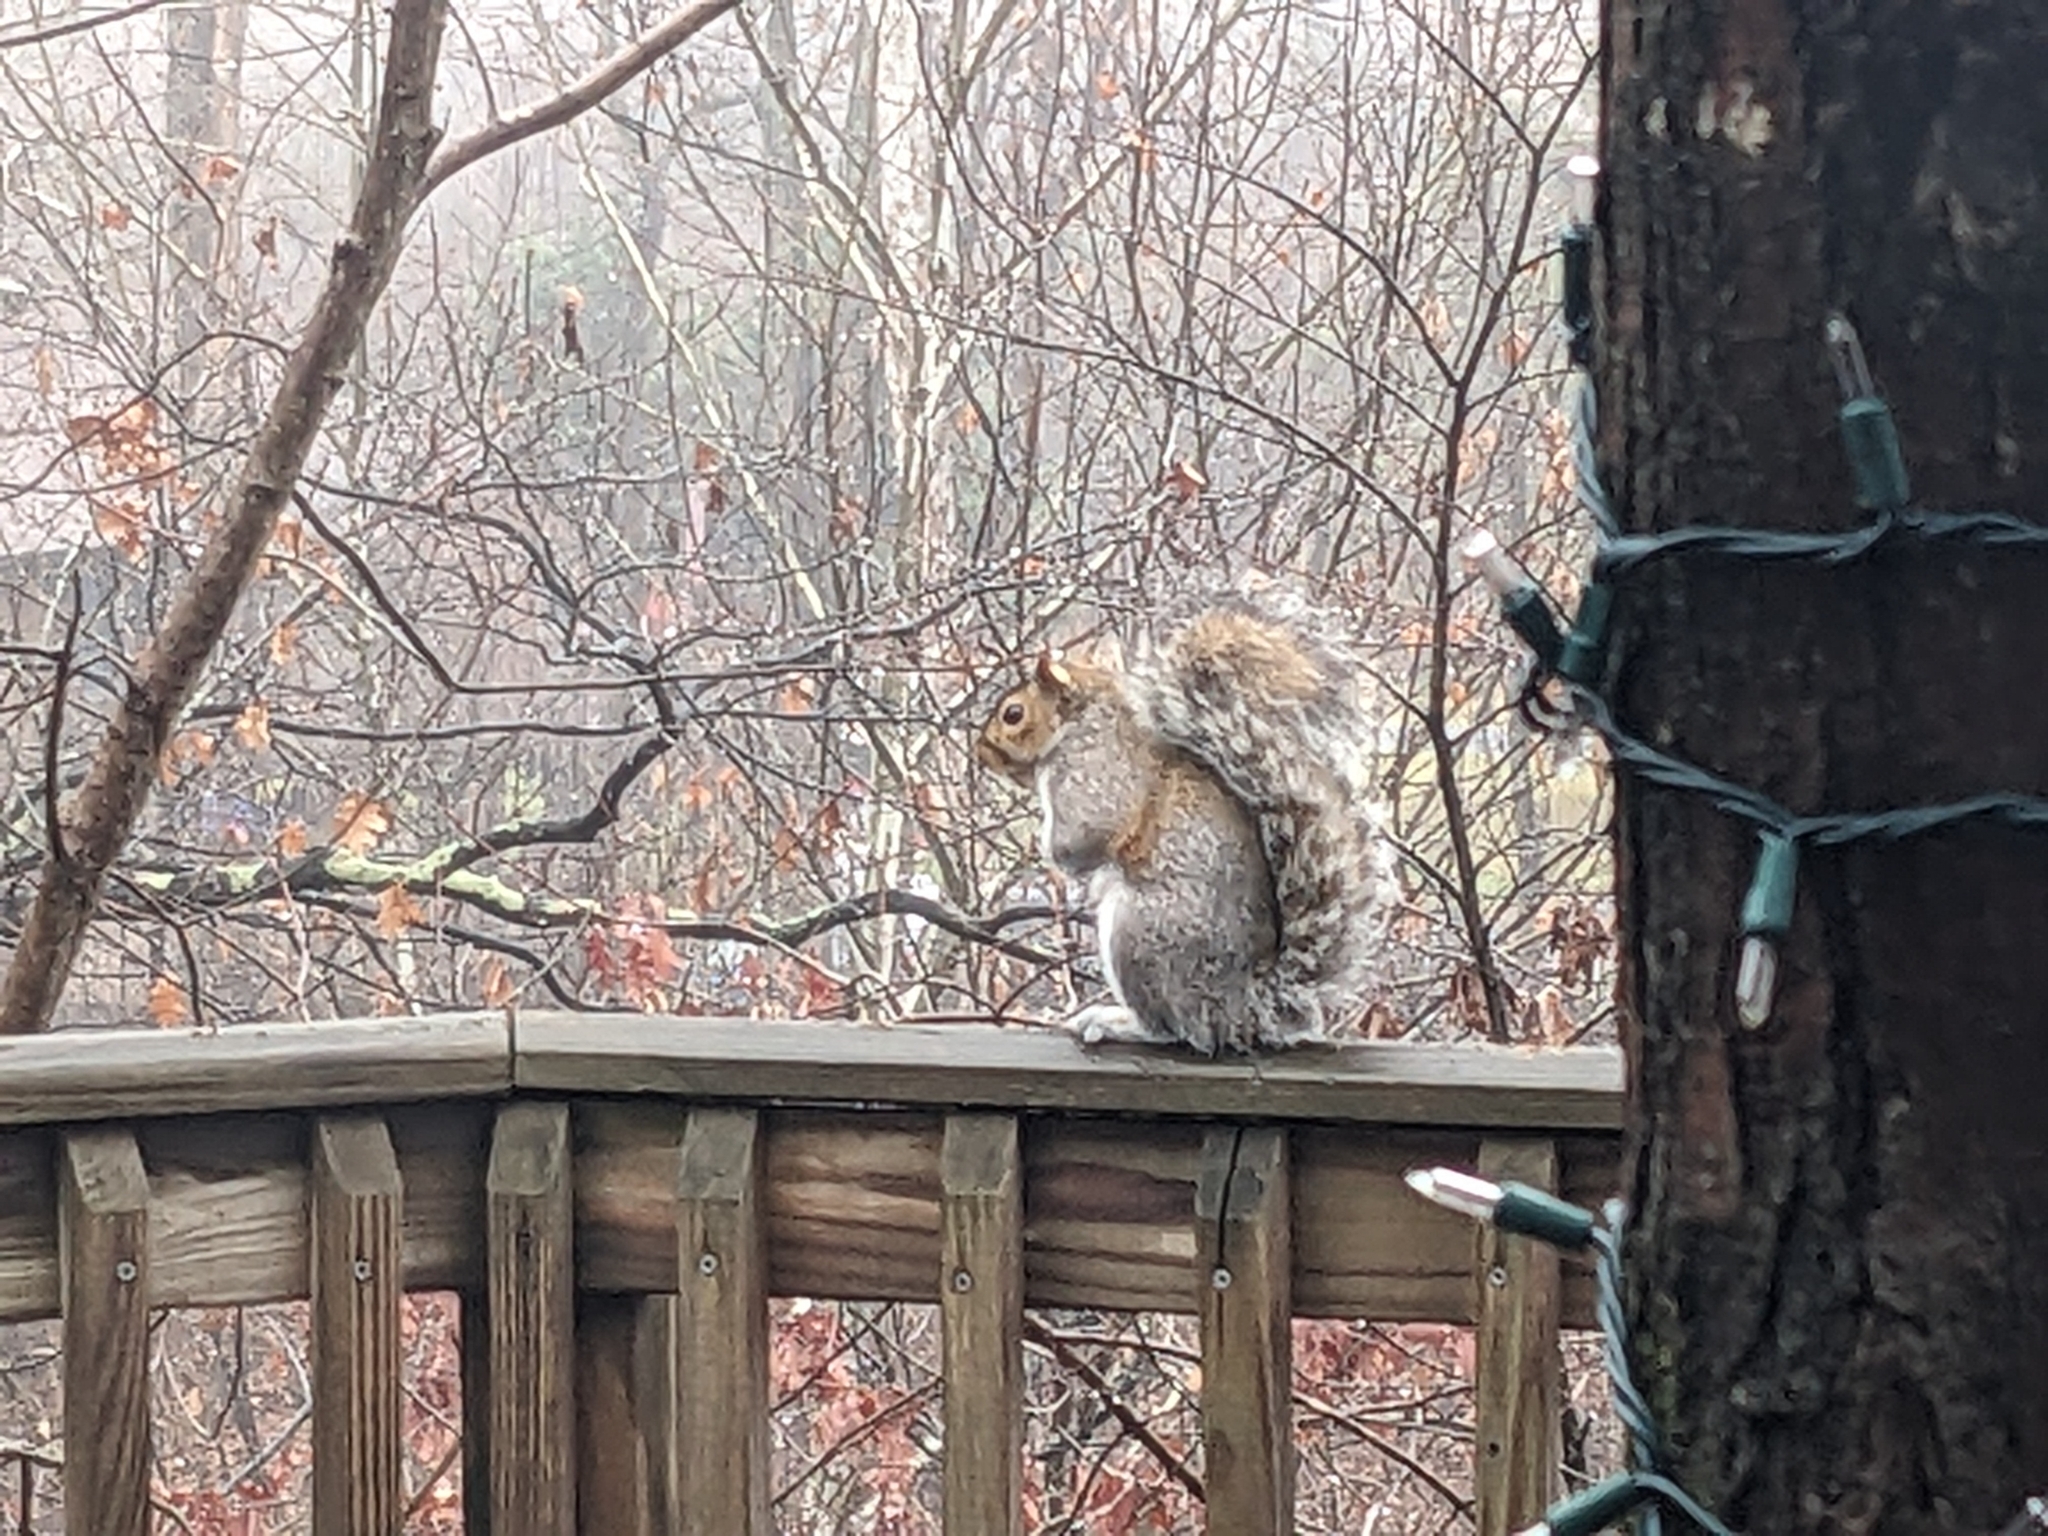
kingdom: Animalia
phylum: Chordata
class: Mammalia
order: Rodentia
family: Sciuridae
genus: Sciurus
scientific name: Sciurus carolinensis
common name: Eastern gray squirrel
